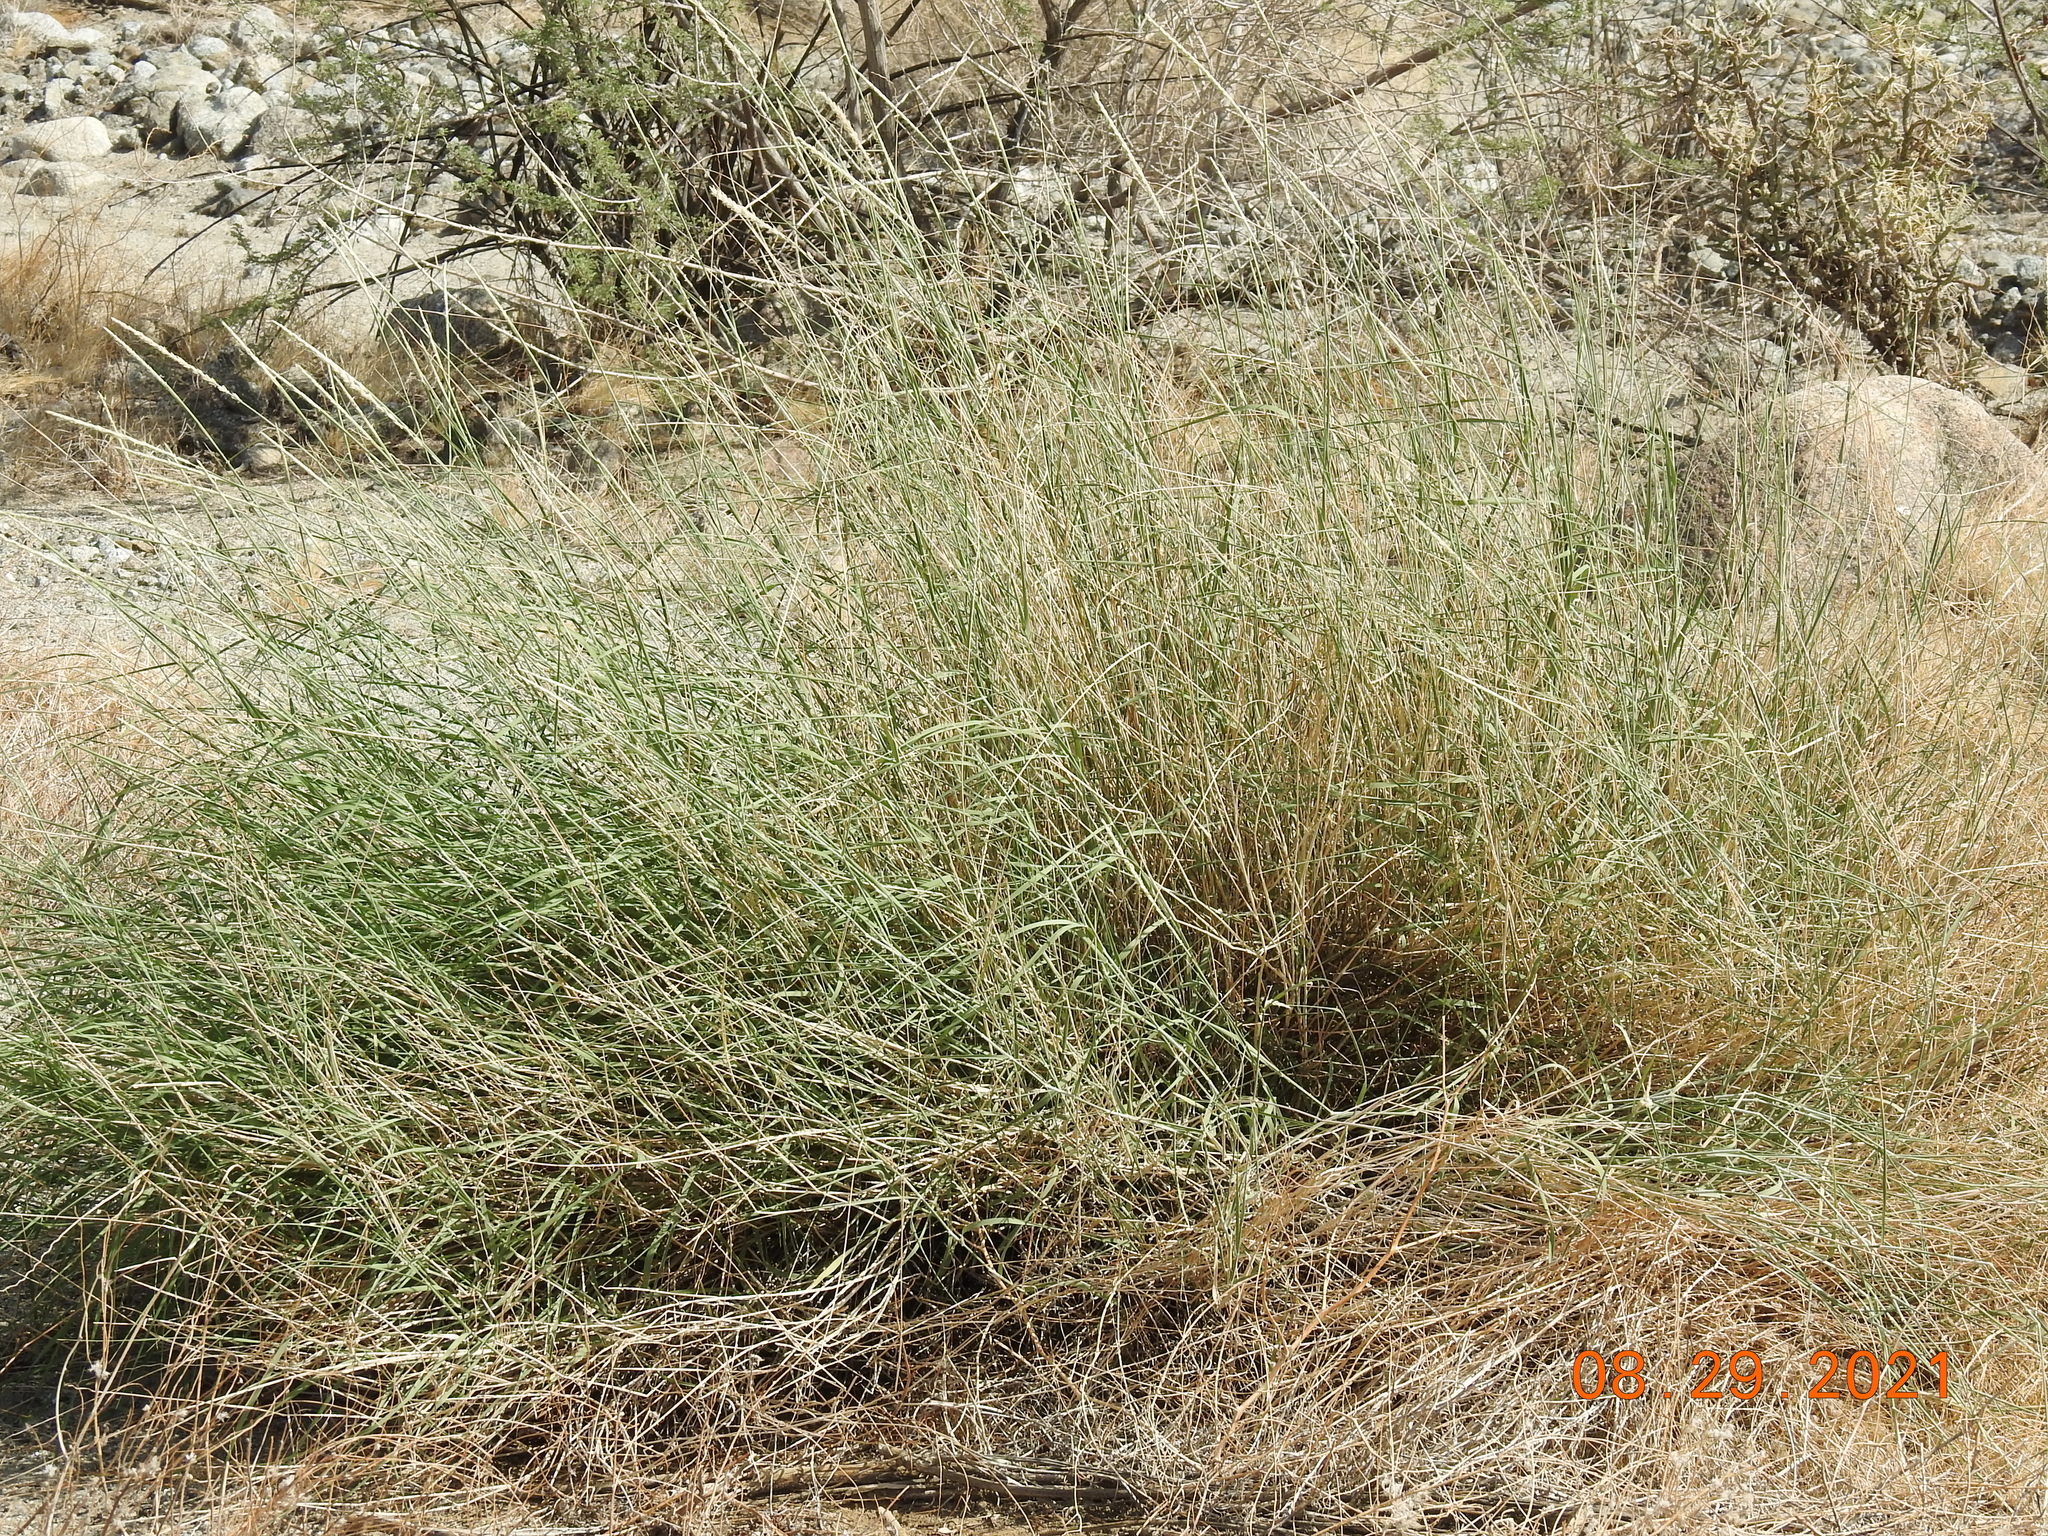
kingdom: Plantae
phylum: Tracheophyta
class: Liliopsida
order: Poales
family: Poaceae
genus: Hilaria
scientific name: Hilaria rigida
